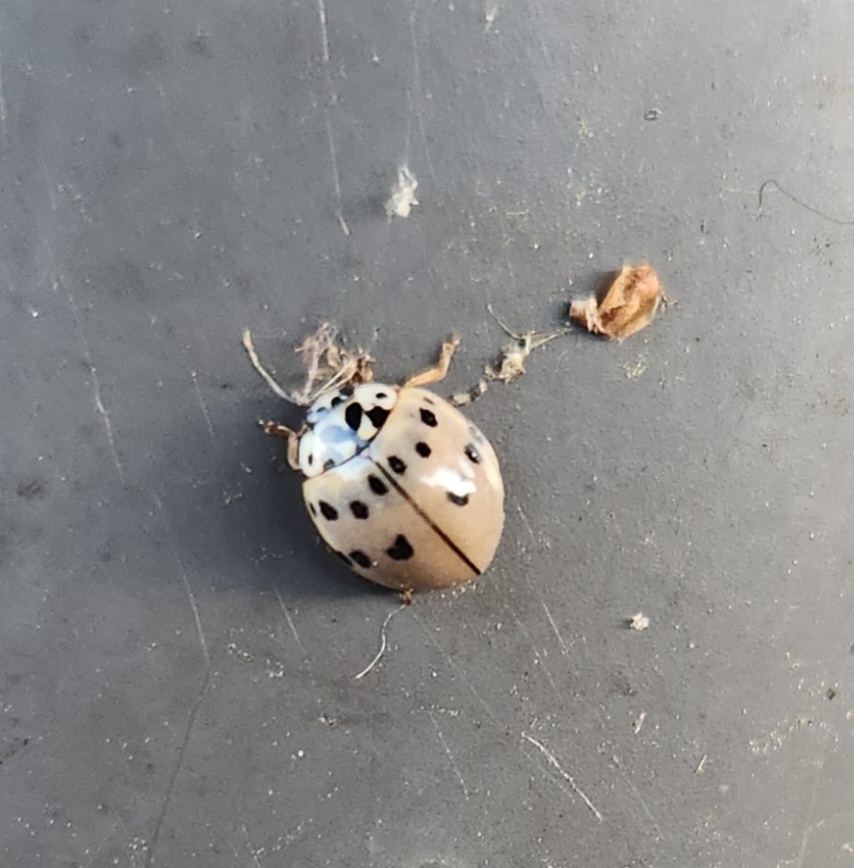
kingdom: Animalia
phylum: Arthropoda
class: Insecta
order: Coleoptera
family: Coccinellidae
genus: Olla
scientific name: Olla v-nigrum
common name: Ashy gray lady beetle
